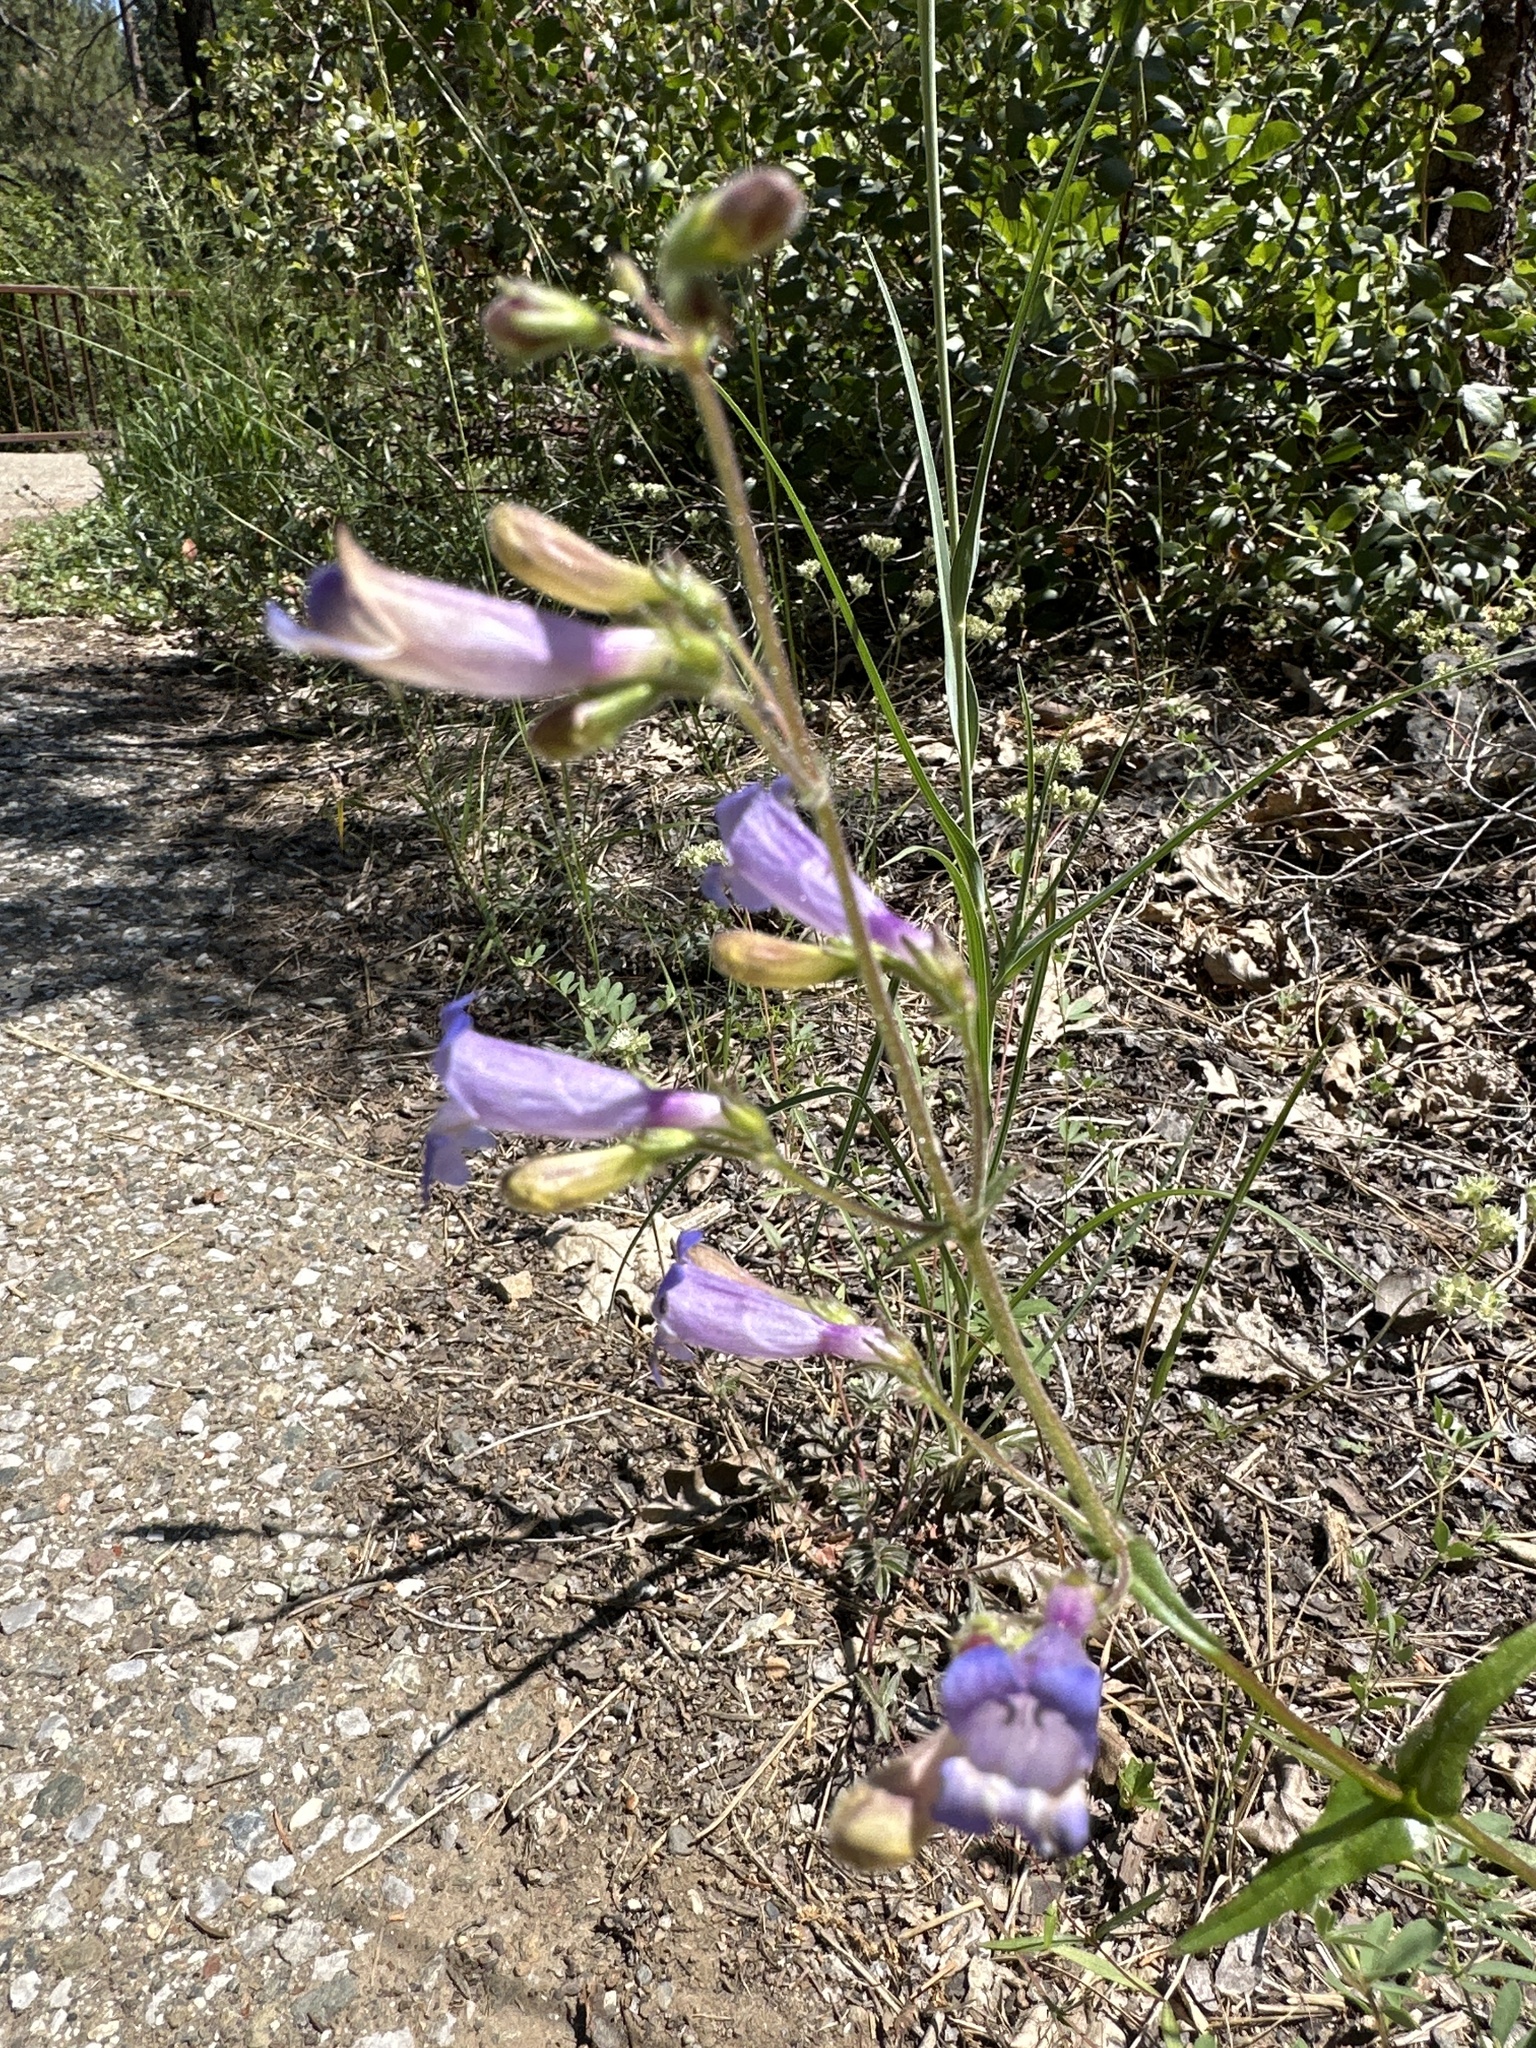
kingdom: Plantae
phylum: Tracheophyta
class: Magnoliopsida
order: Lamiales
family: Plantaginaceae
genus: Penstemon
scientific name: Penstemon laetus
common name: Gay penstemon
